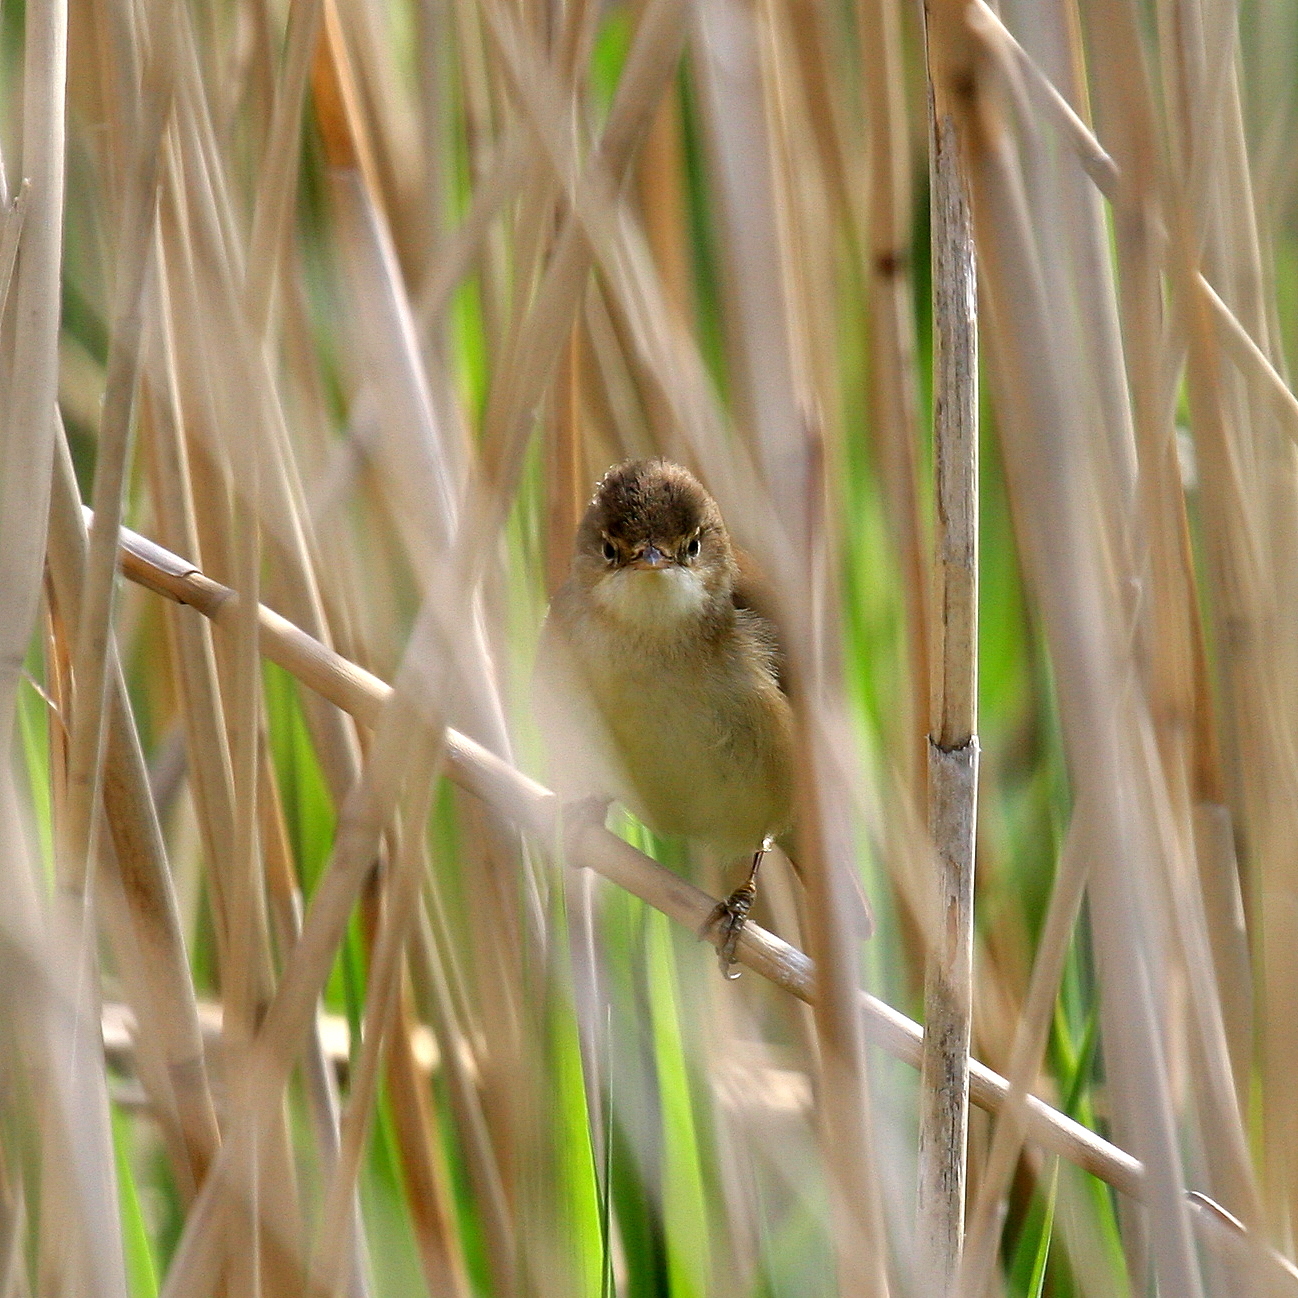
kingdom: Animalia
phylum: Chordata
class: Aves
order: Passeriformes
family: Acrocephalidae
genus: Acrocephalus
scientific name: Acrocephalus scirpaceus
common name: Eurasian reed warbler
